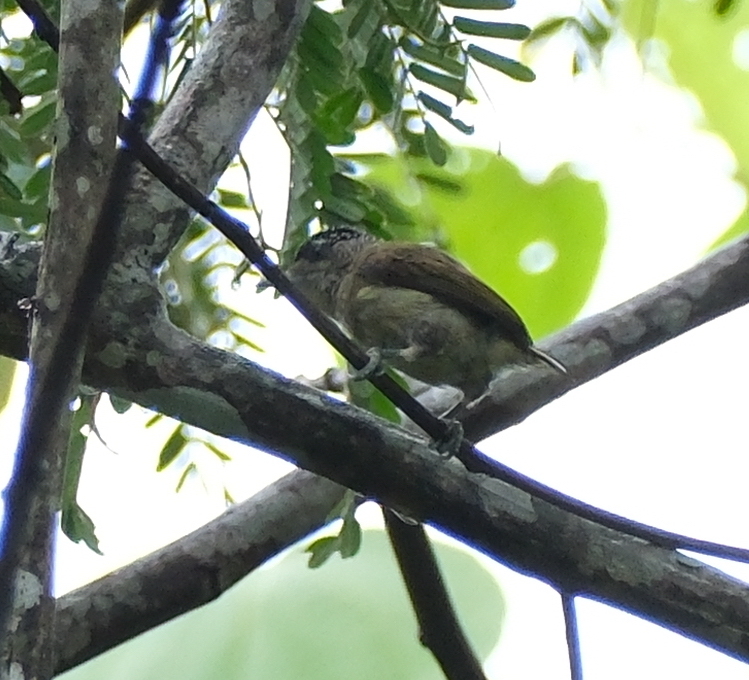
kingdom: Animalia
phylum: Chordata
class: Aves
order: Piciformes
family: Picidae
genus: Picumnus
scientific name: Picumnus subtilis
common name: Fine-barred piculet
